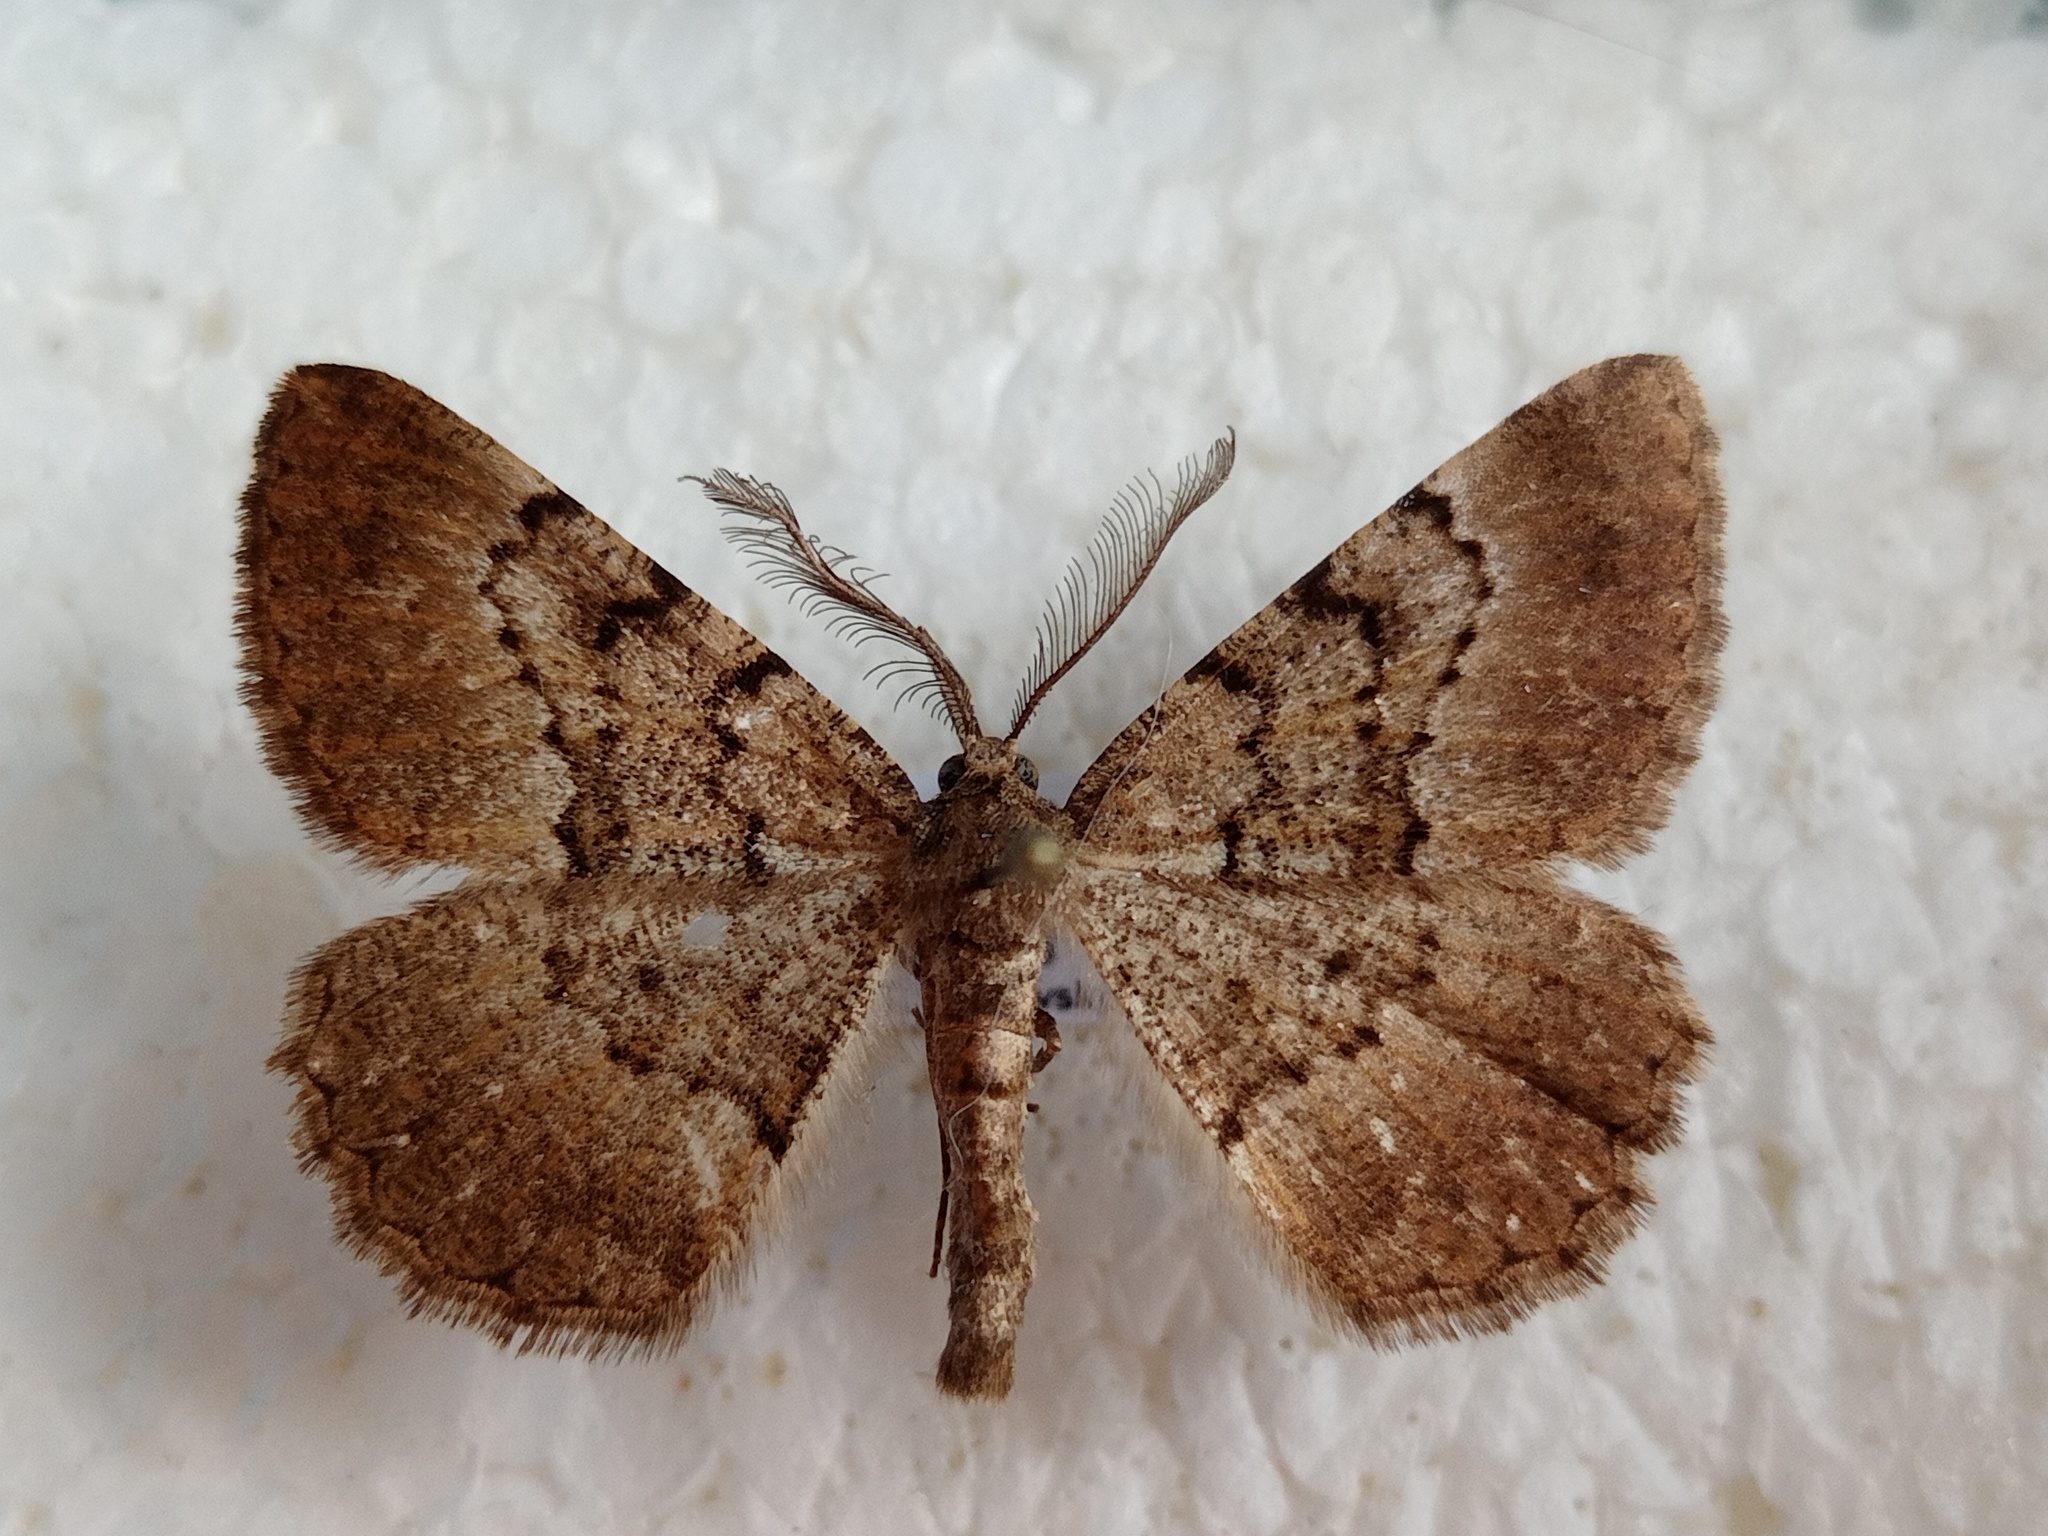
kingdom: Animalia
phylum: Arthropoda
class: Insecta
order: Lepidoptera
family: Geometridae
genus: Selidosema
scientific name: Selidosema taeniolaria
